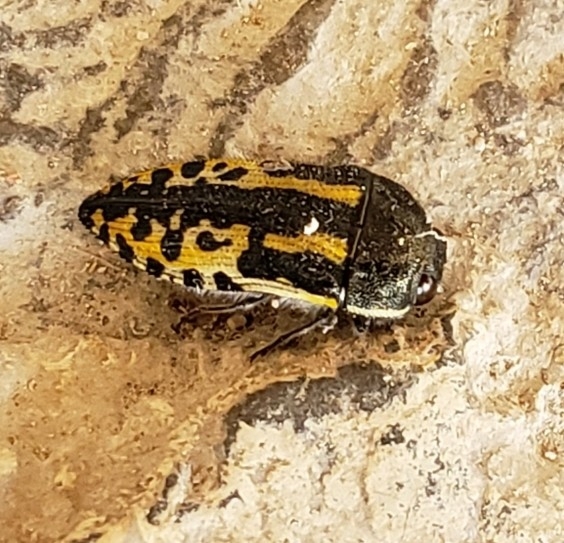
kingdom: Animalia
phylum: Arthropoda
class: Insecta
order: Coleoptera
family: Buprestidae
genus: Acmaeodera
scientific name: Acmaeodera scalaris
